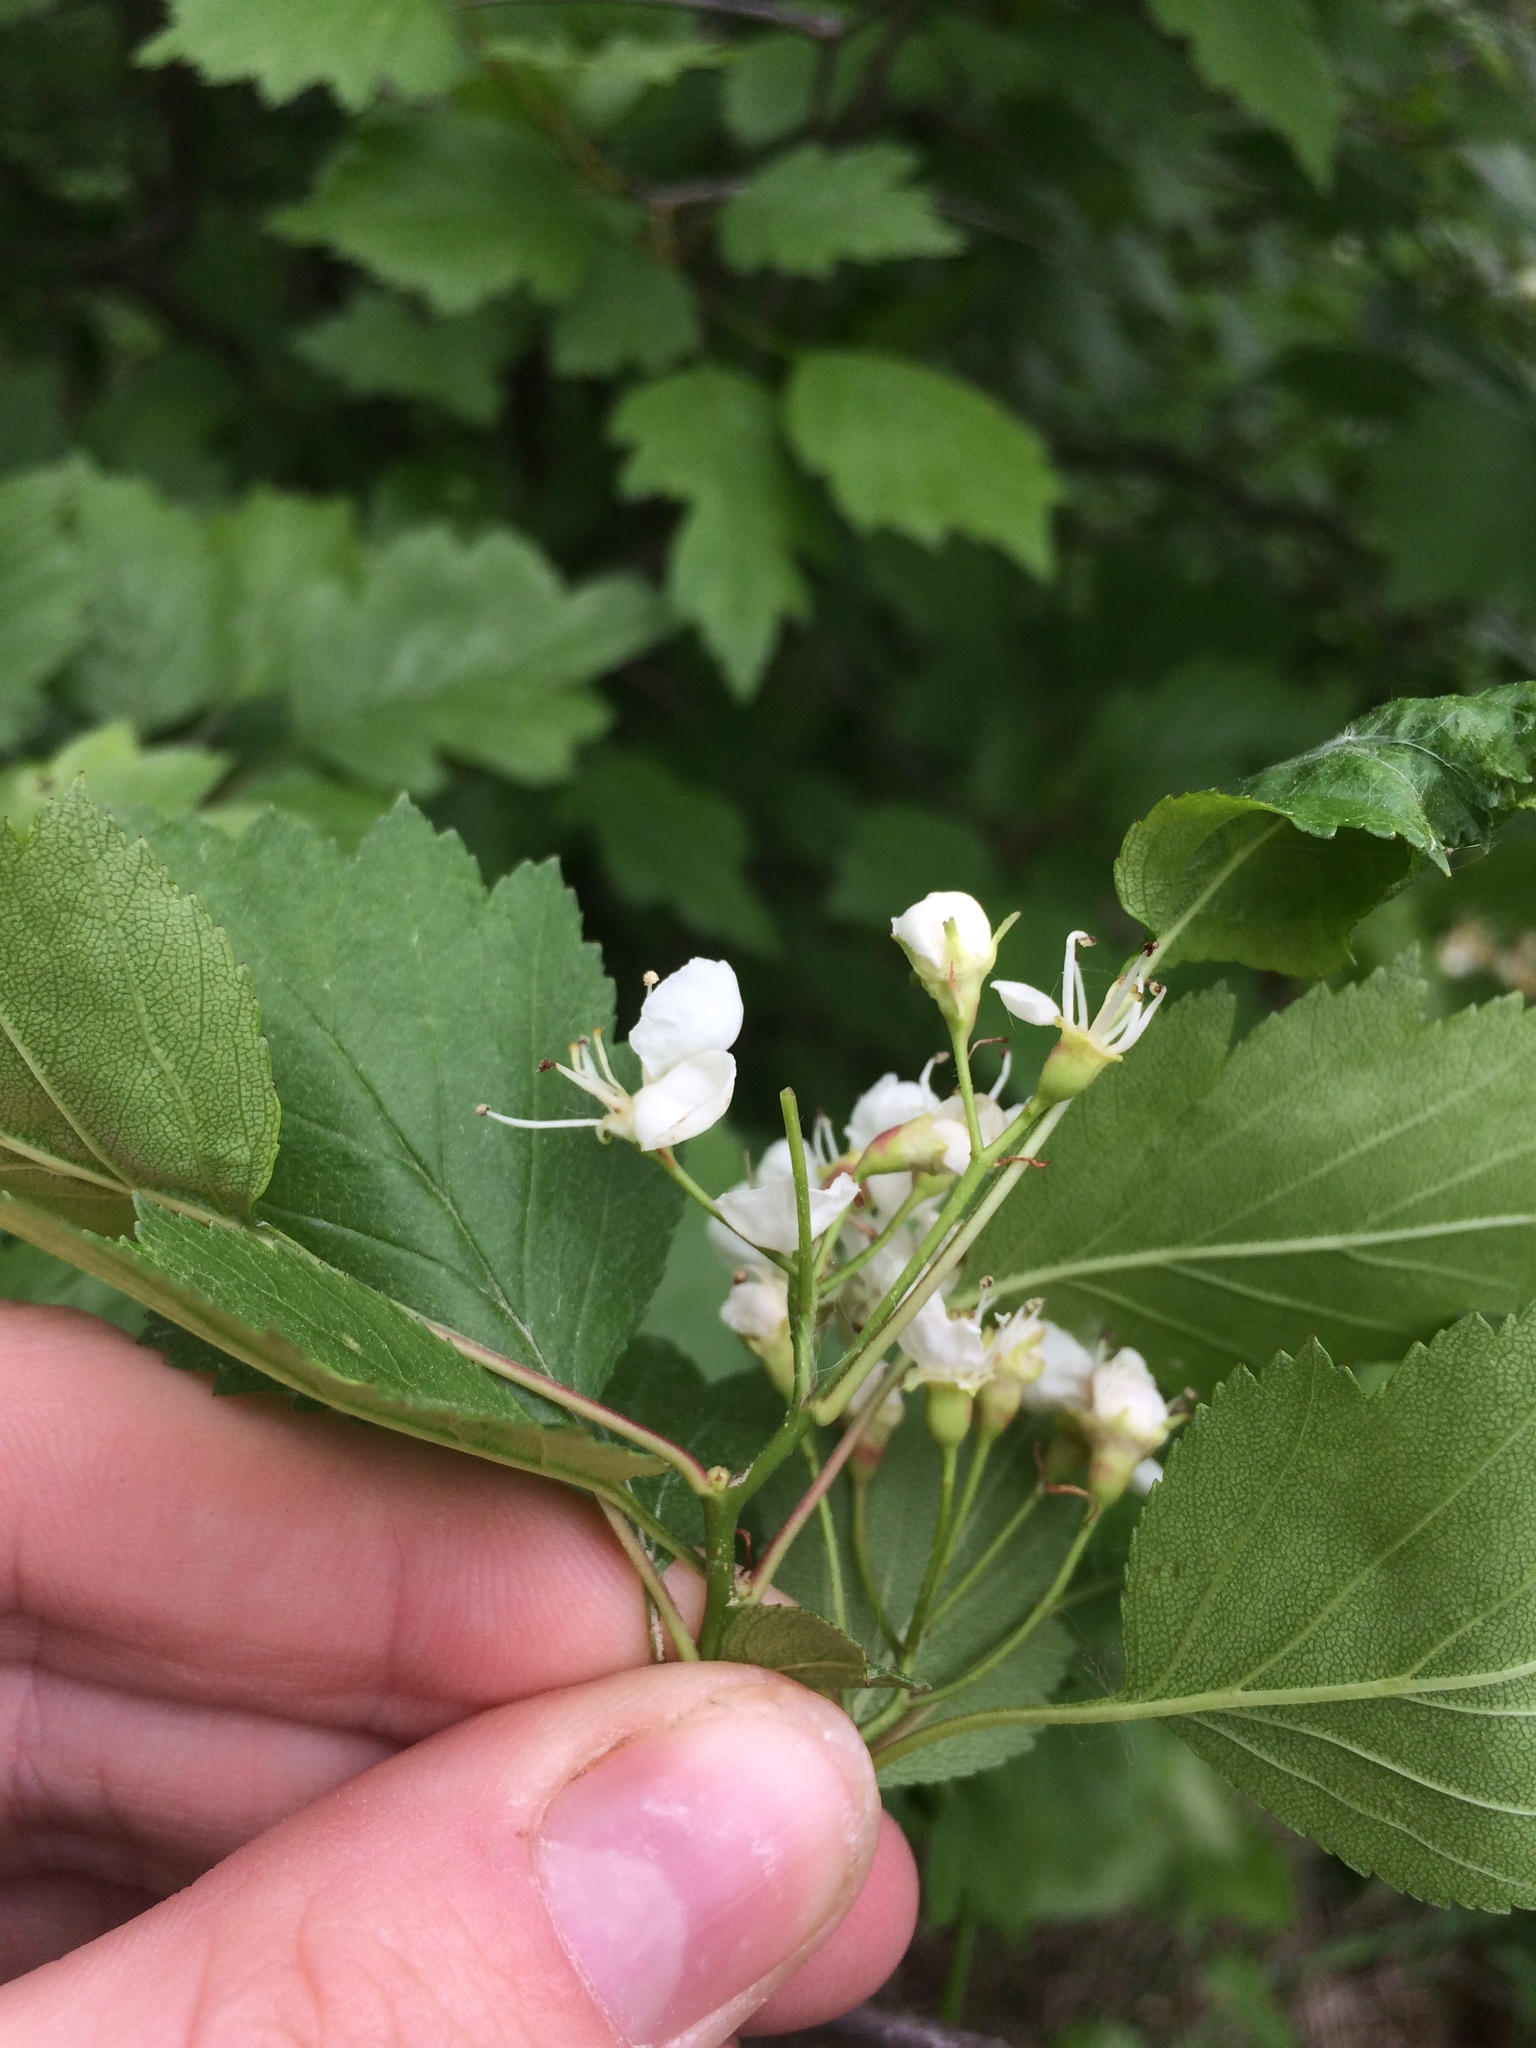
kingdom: Plantae
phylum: Tracheophyta
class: Magnoliopsida
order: Rosales
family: Rosaceae
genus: Crataegus
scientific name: Crataegus fluviatilis
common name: Fort sheridan hawthorn
